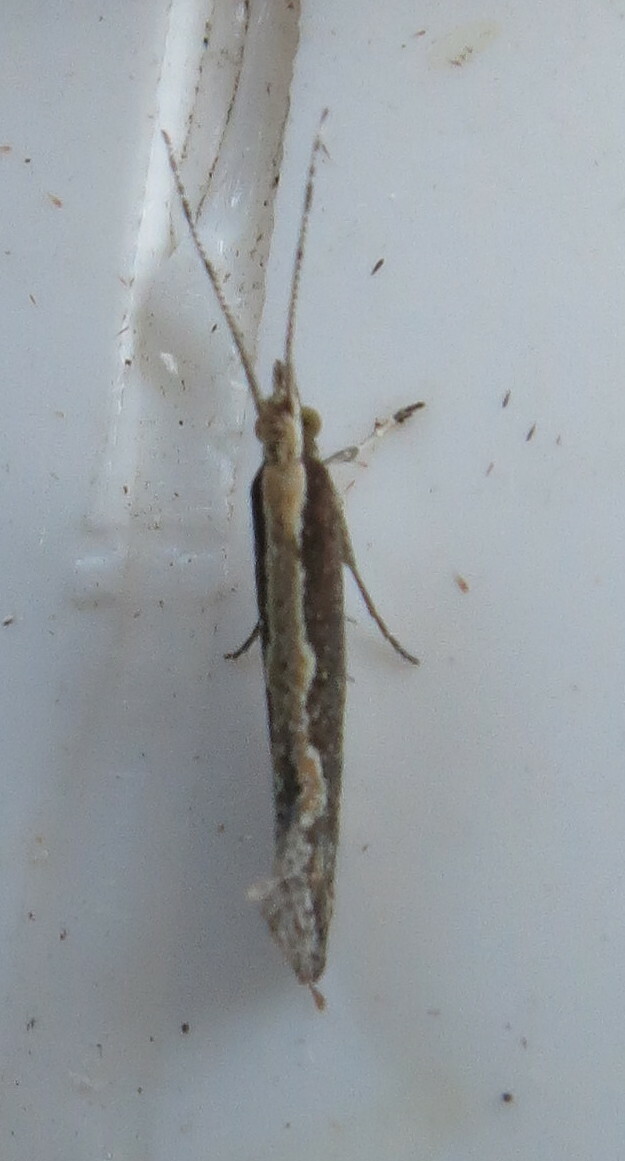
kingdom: Animalia
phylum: Arthropoda
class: Insecta
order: Lepidoptera
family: Plutellidae
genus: Plutella
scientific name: Plutella xylostella
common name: Diamond-back moth
